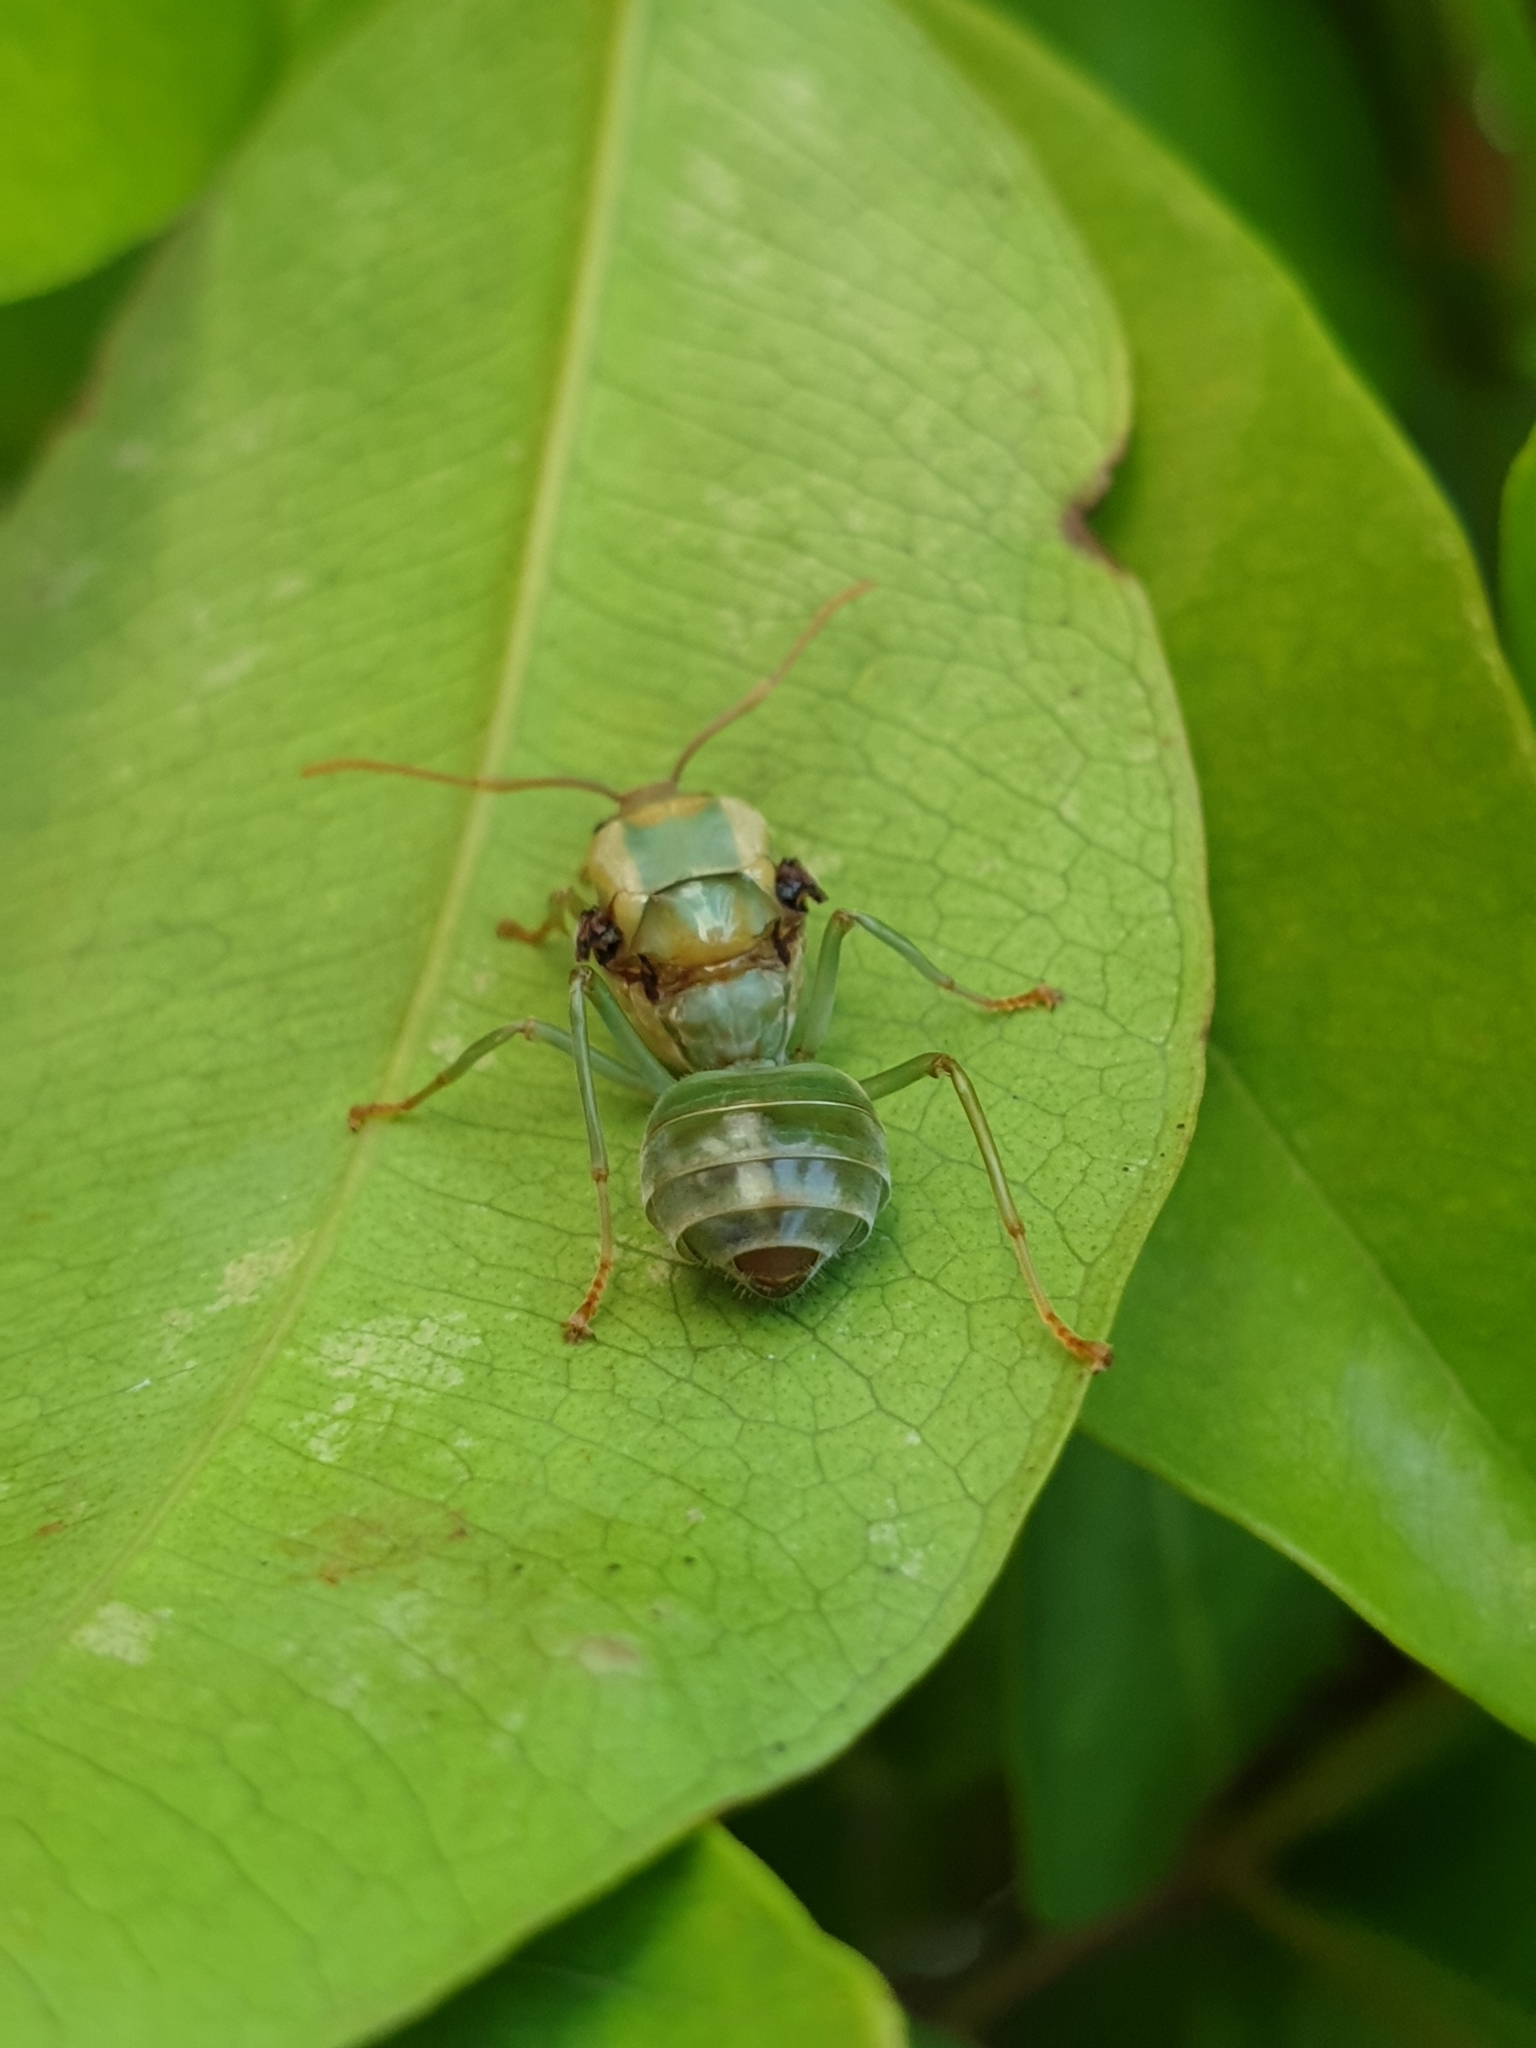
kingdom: Animalia
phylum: Arthropoda
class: Insecta
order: Hymenoptera
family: Formicidae
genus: Oecophylla
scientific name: Oecophylla smaragdina
